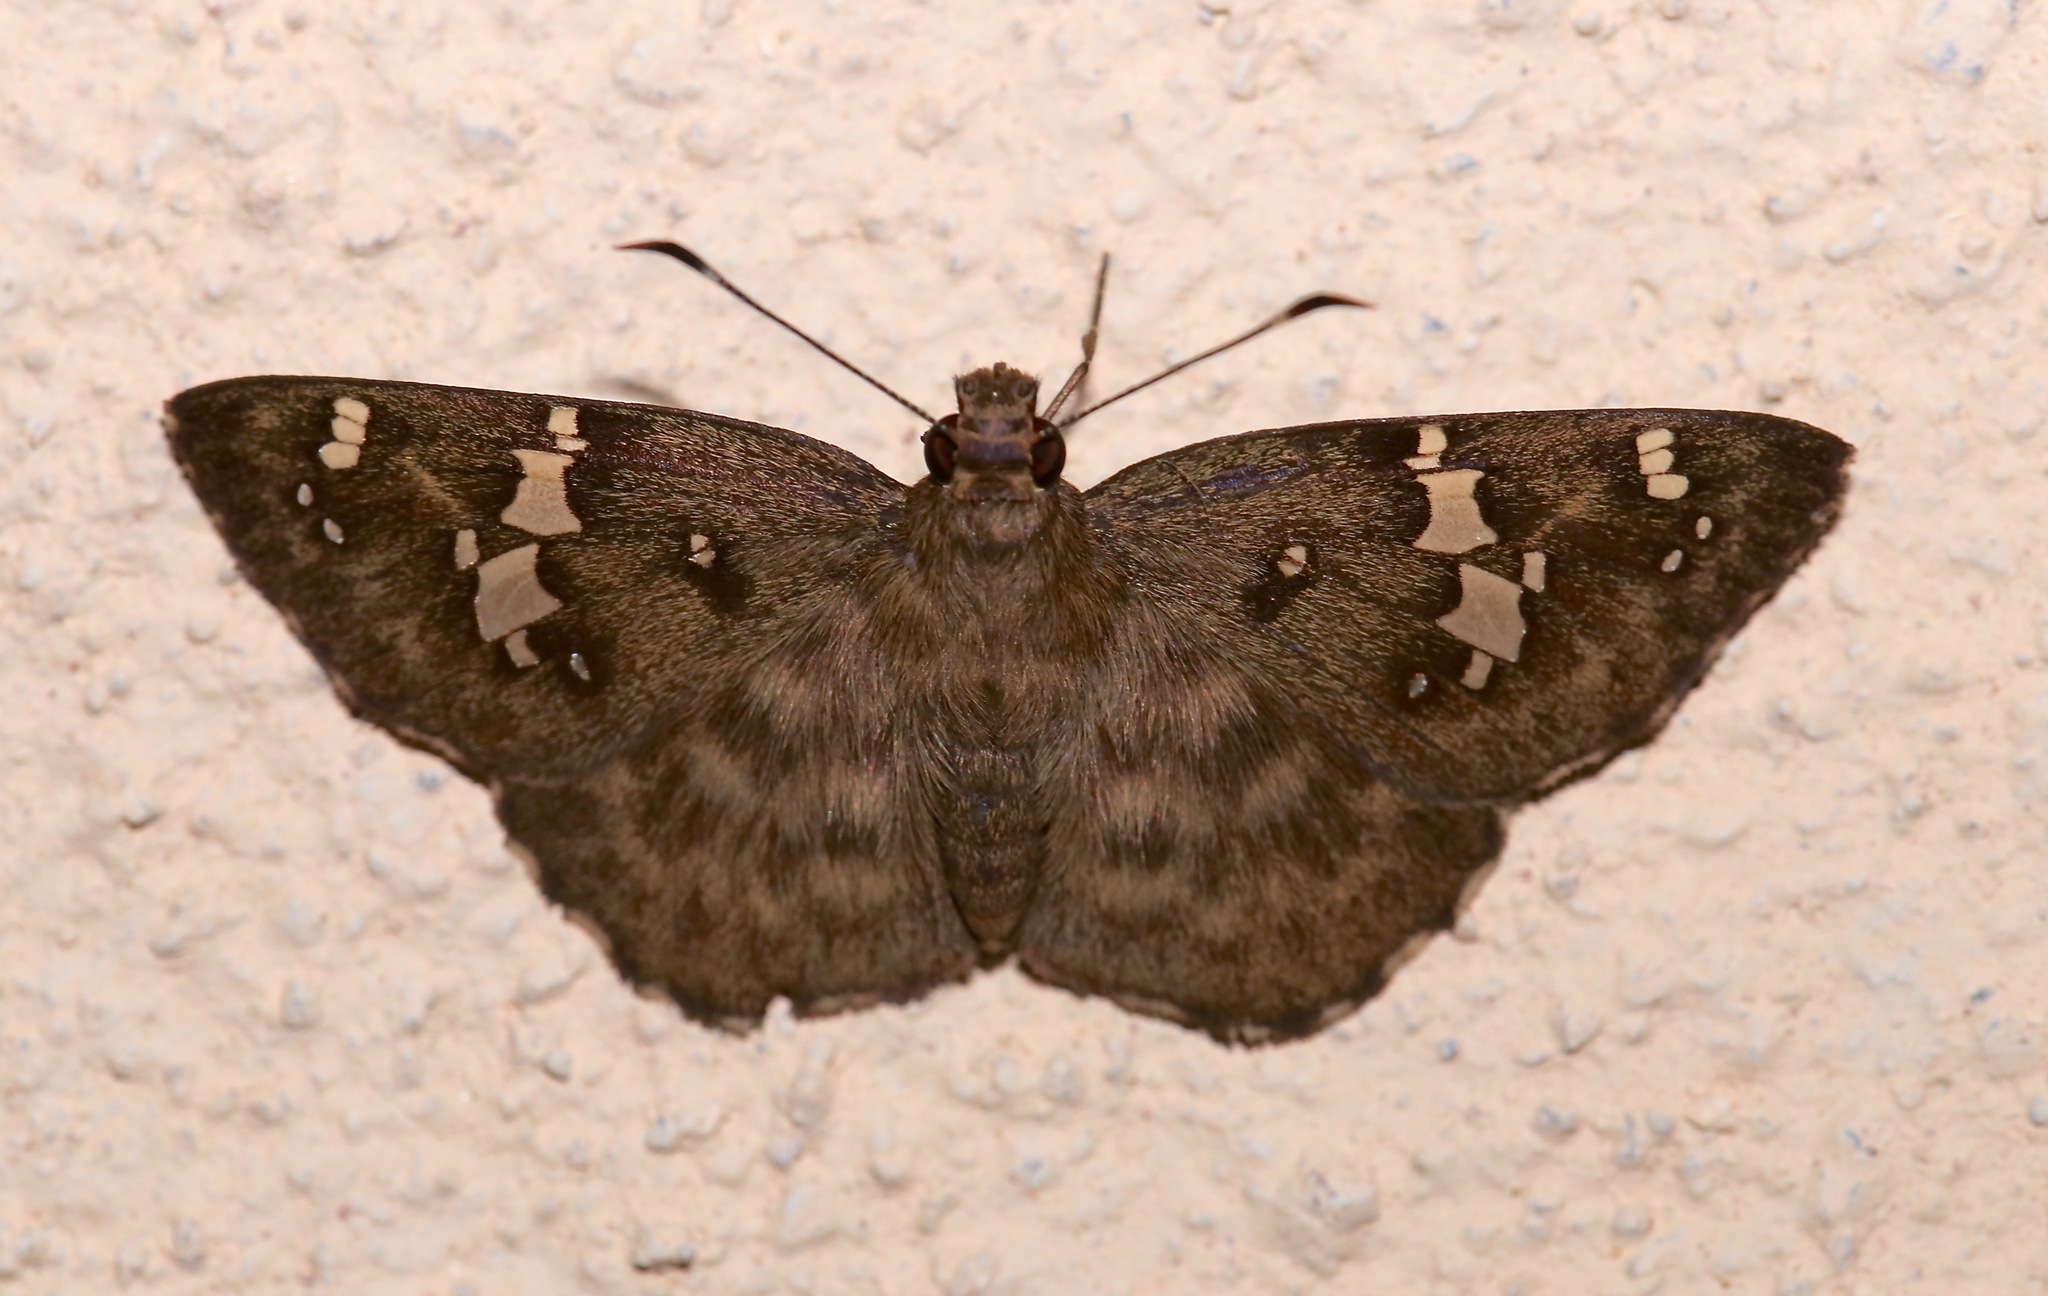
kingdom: Animalia
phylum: Arthropoda
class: Insecta
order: Lepidoptera
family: Hesperiidae
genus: Celaenorrhinus
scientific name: Celaenorrhinus fritzgaertneri
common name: Fritzgaertner's flat
